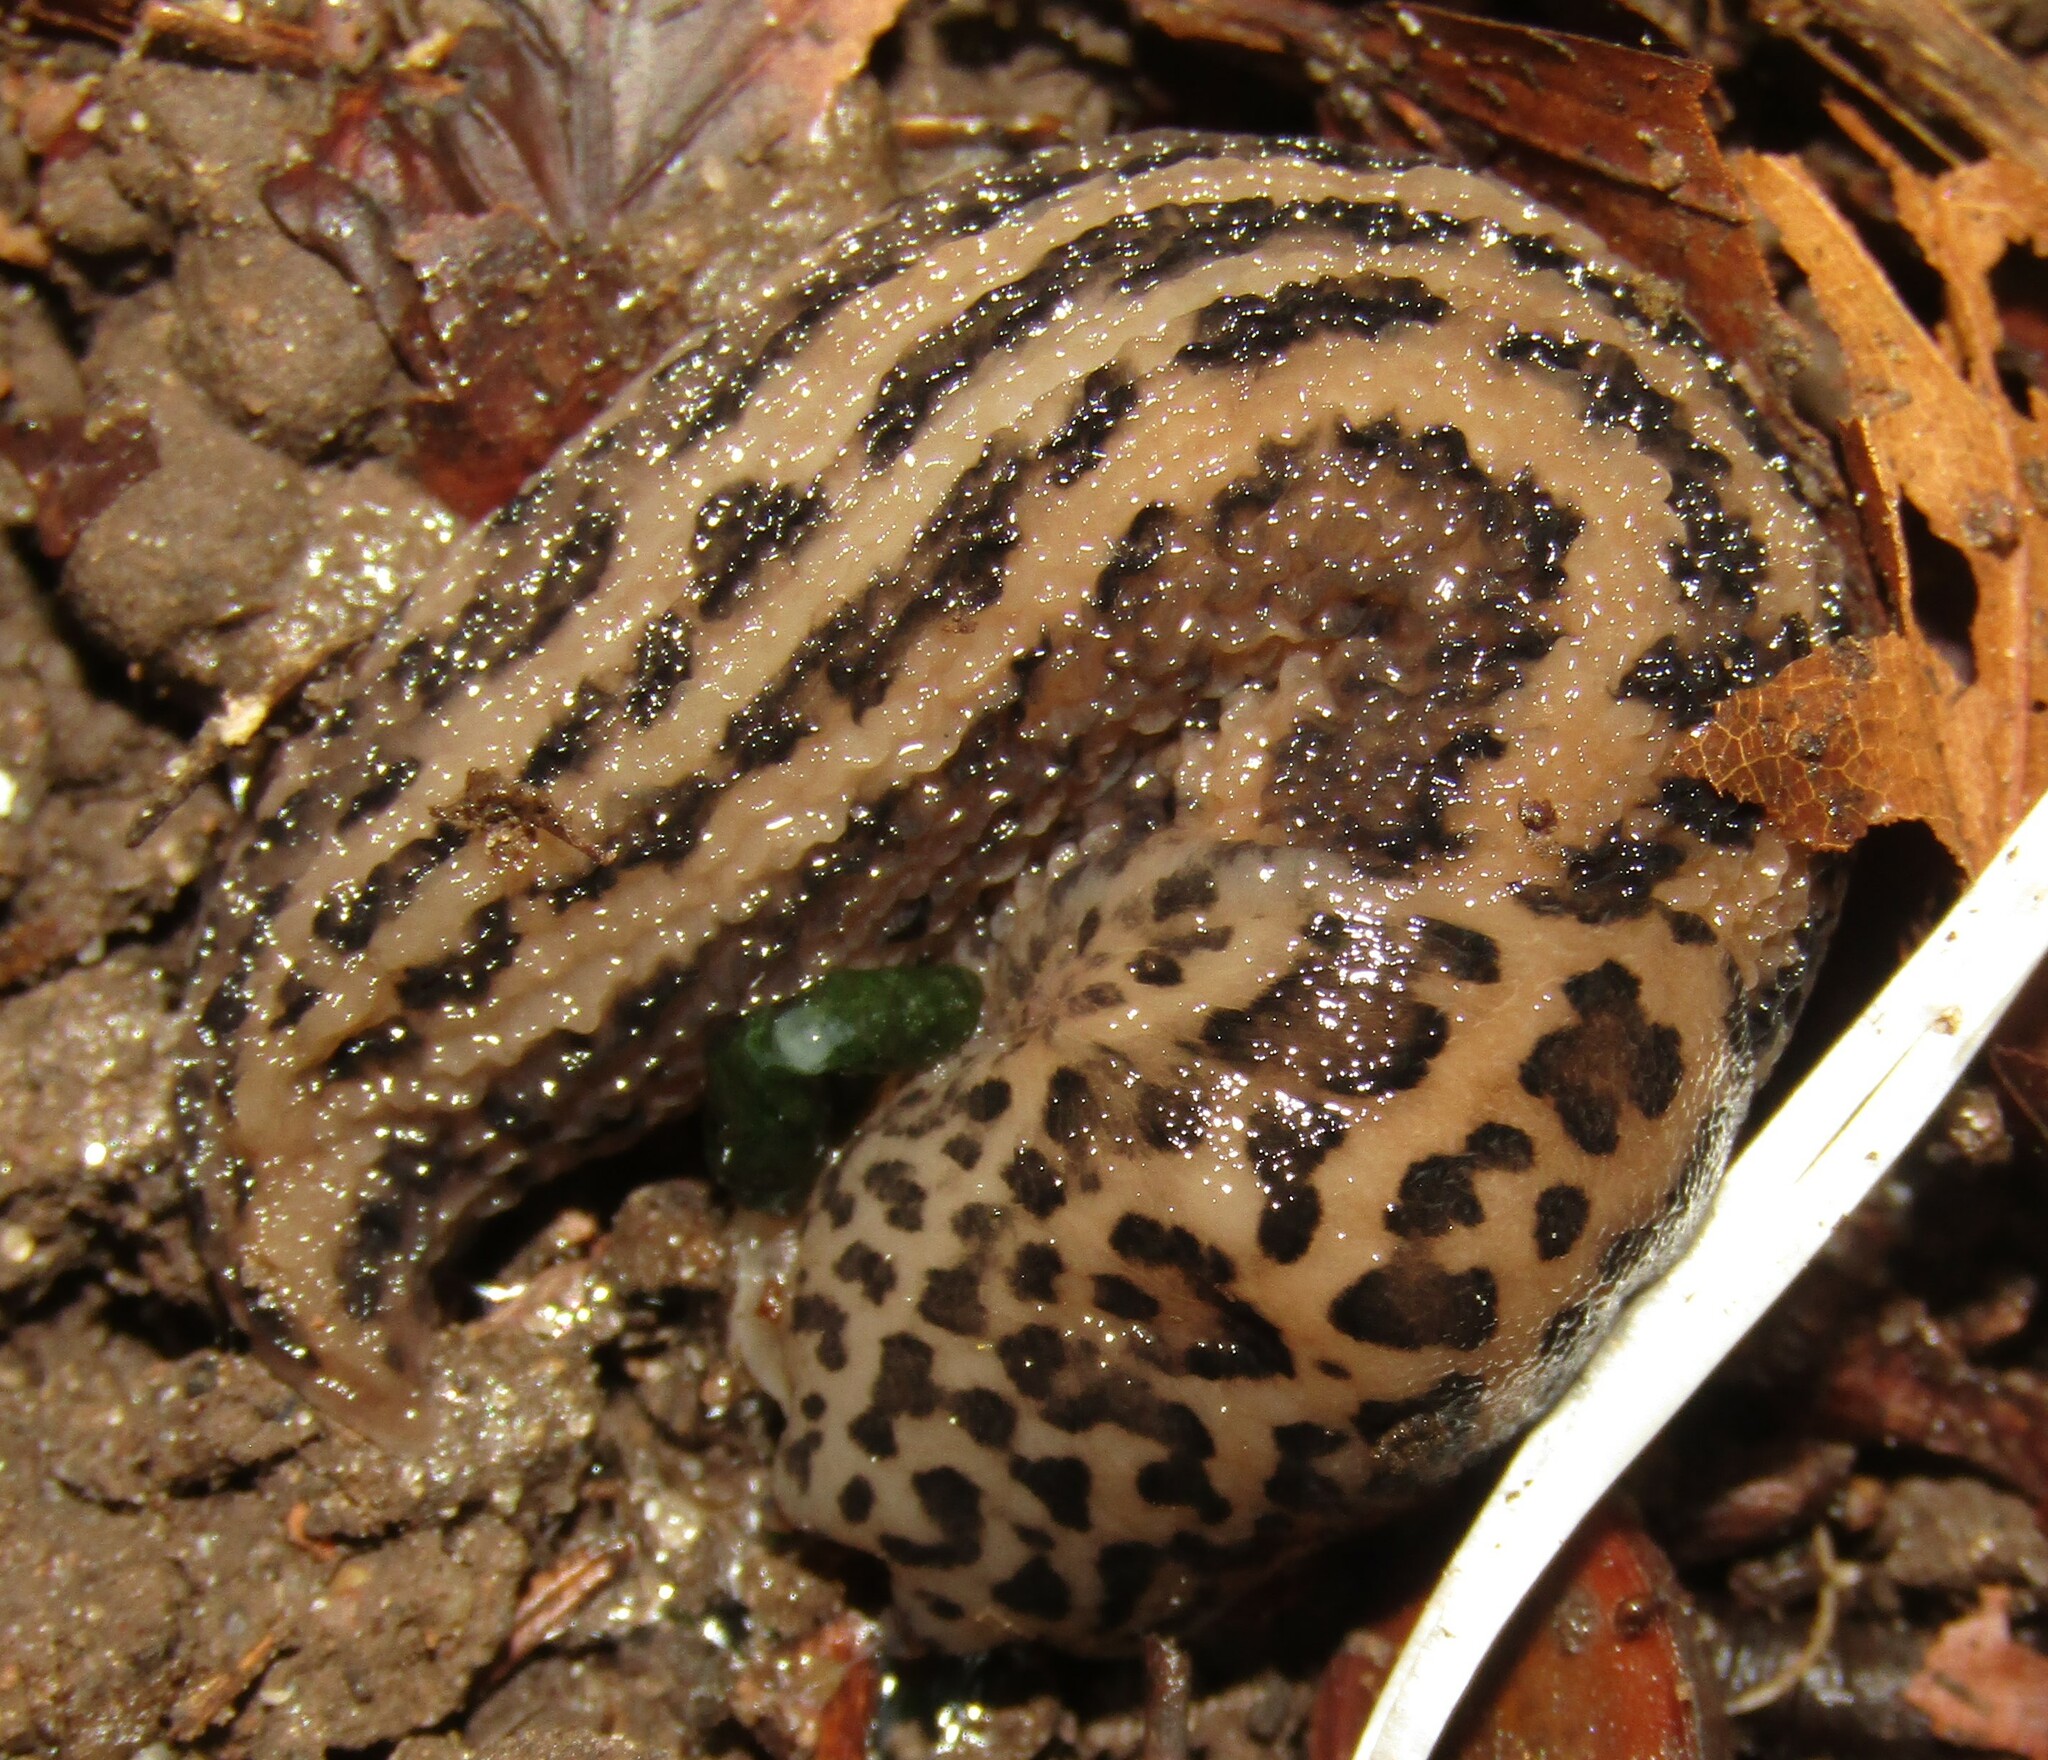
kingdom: Animalia
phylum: Mollusca
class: Gastropoda
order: Stylommatophora
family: Limacidae
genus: Limax
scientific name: Limax maximus
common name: Great grey slug
